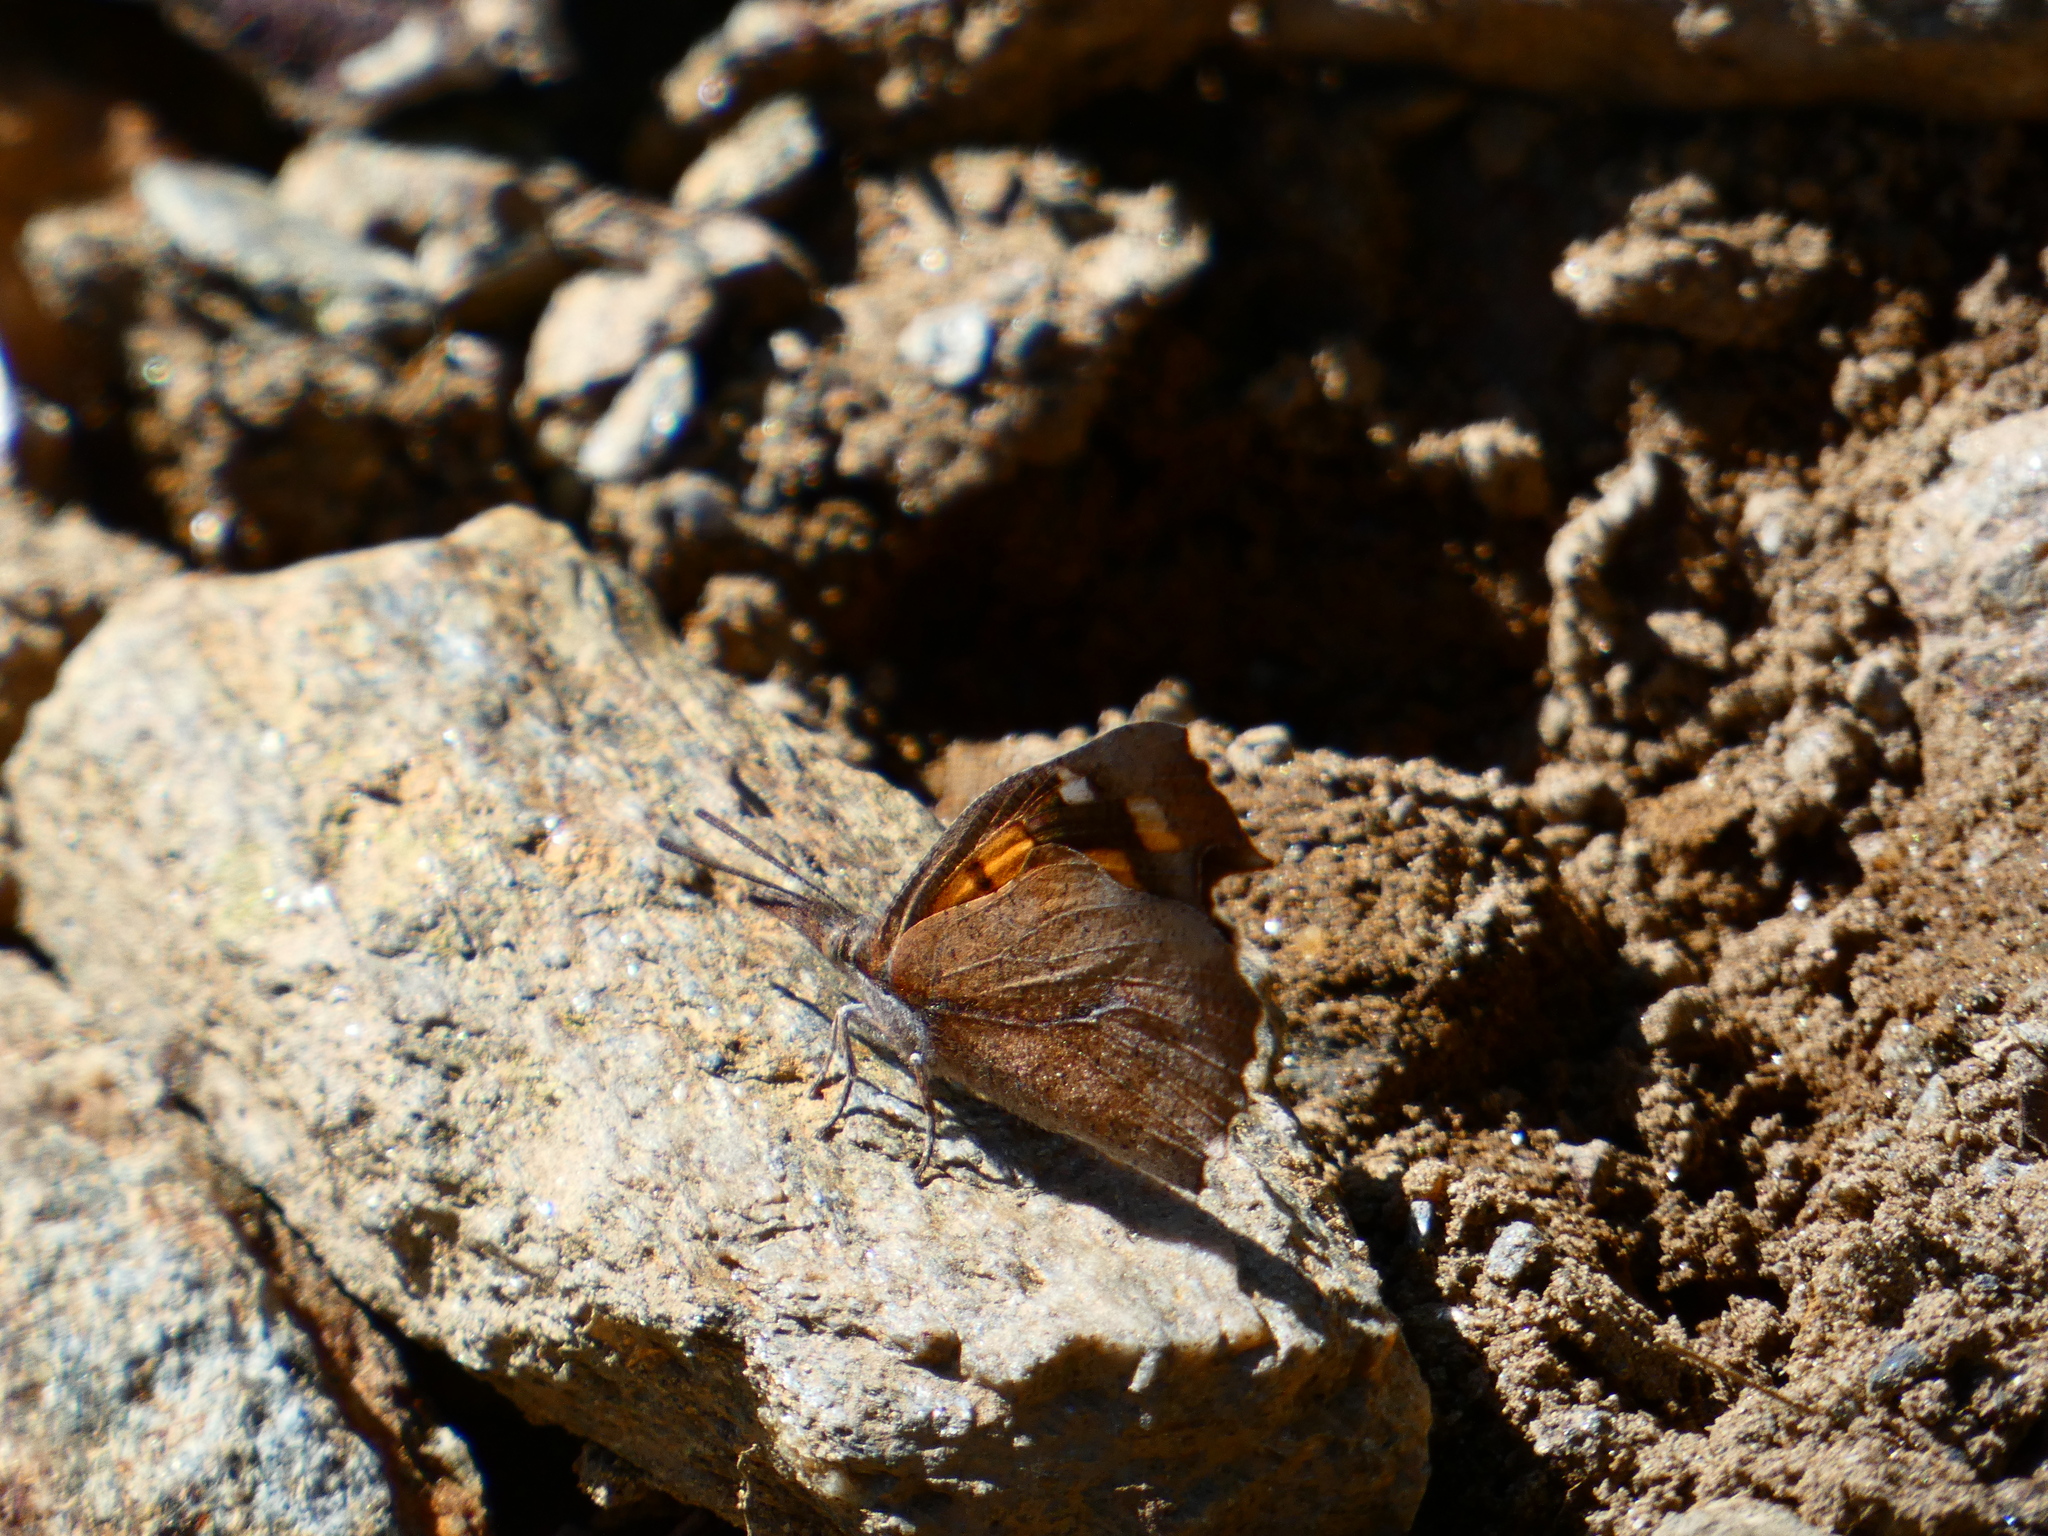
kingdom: Animalia
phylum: Arthropoda
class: Insecta
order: Lepidoptera
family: Nymphalidae
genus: Libythea
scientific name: Libythea celtis
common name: Nettle-tree butterfly
